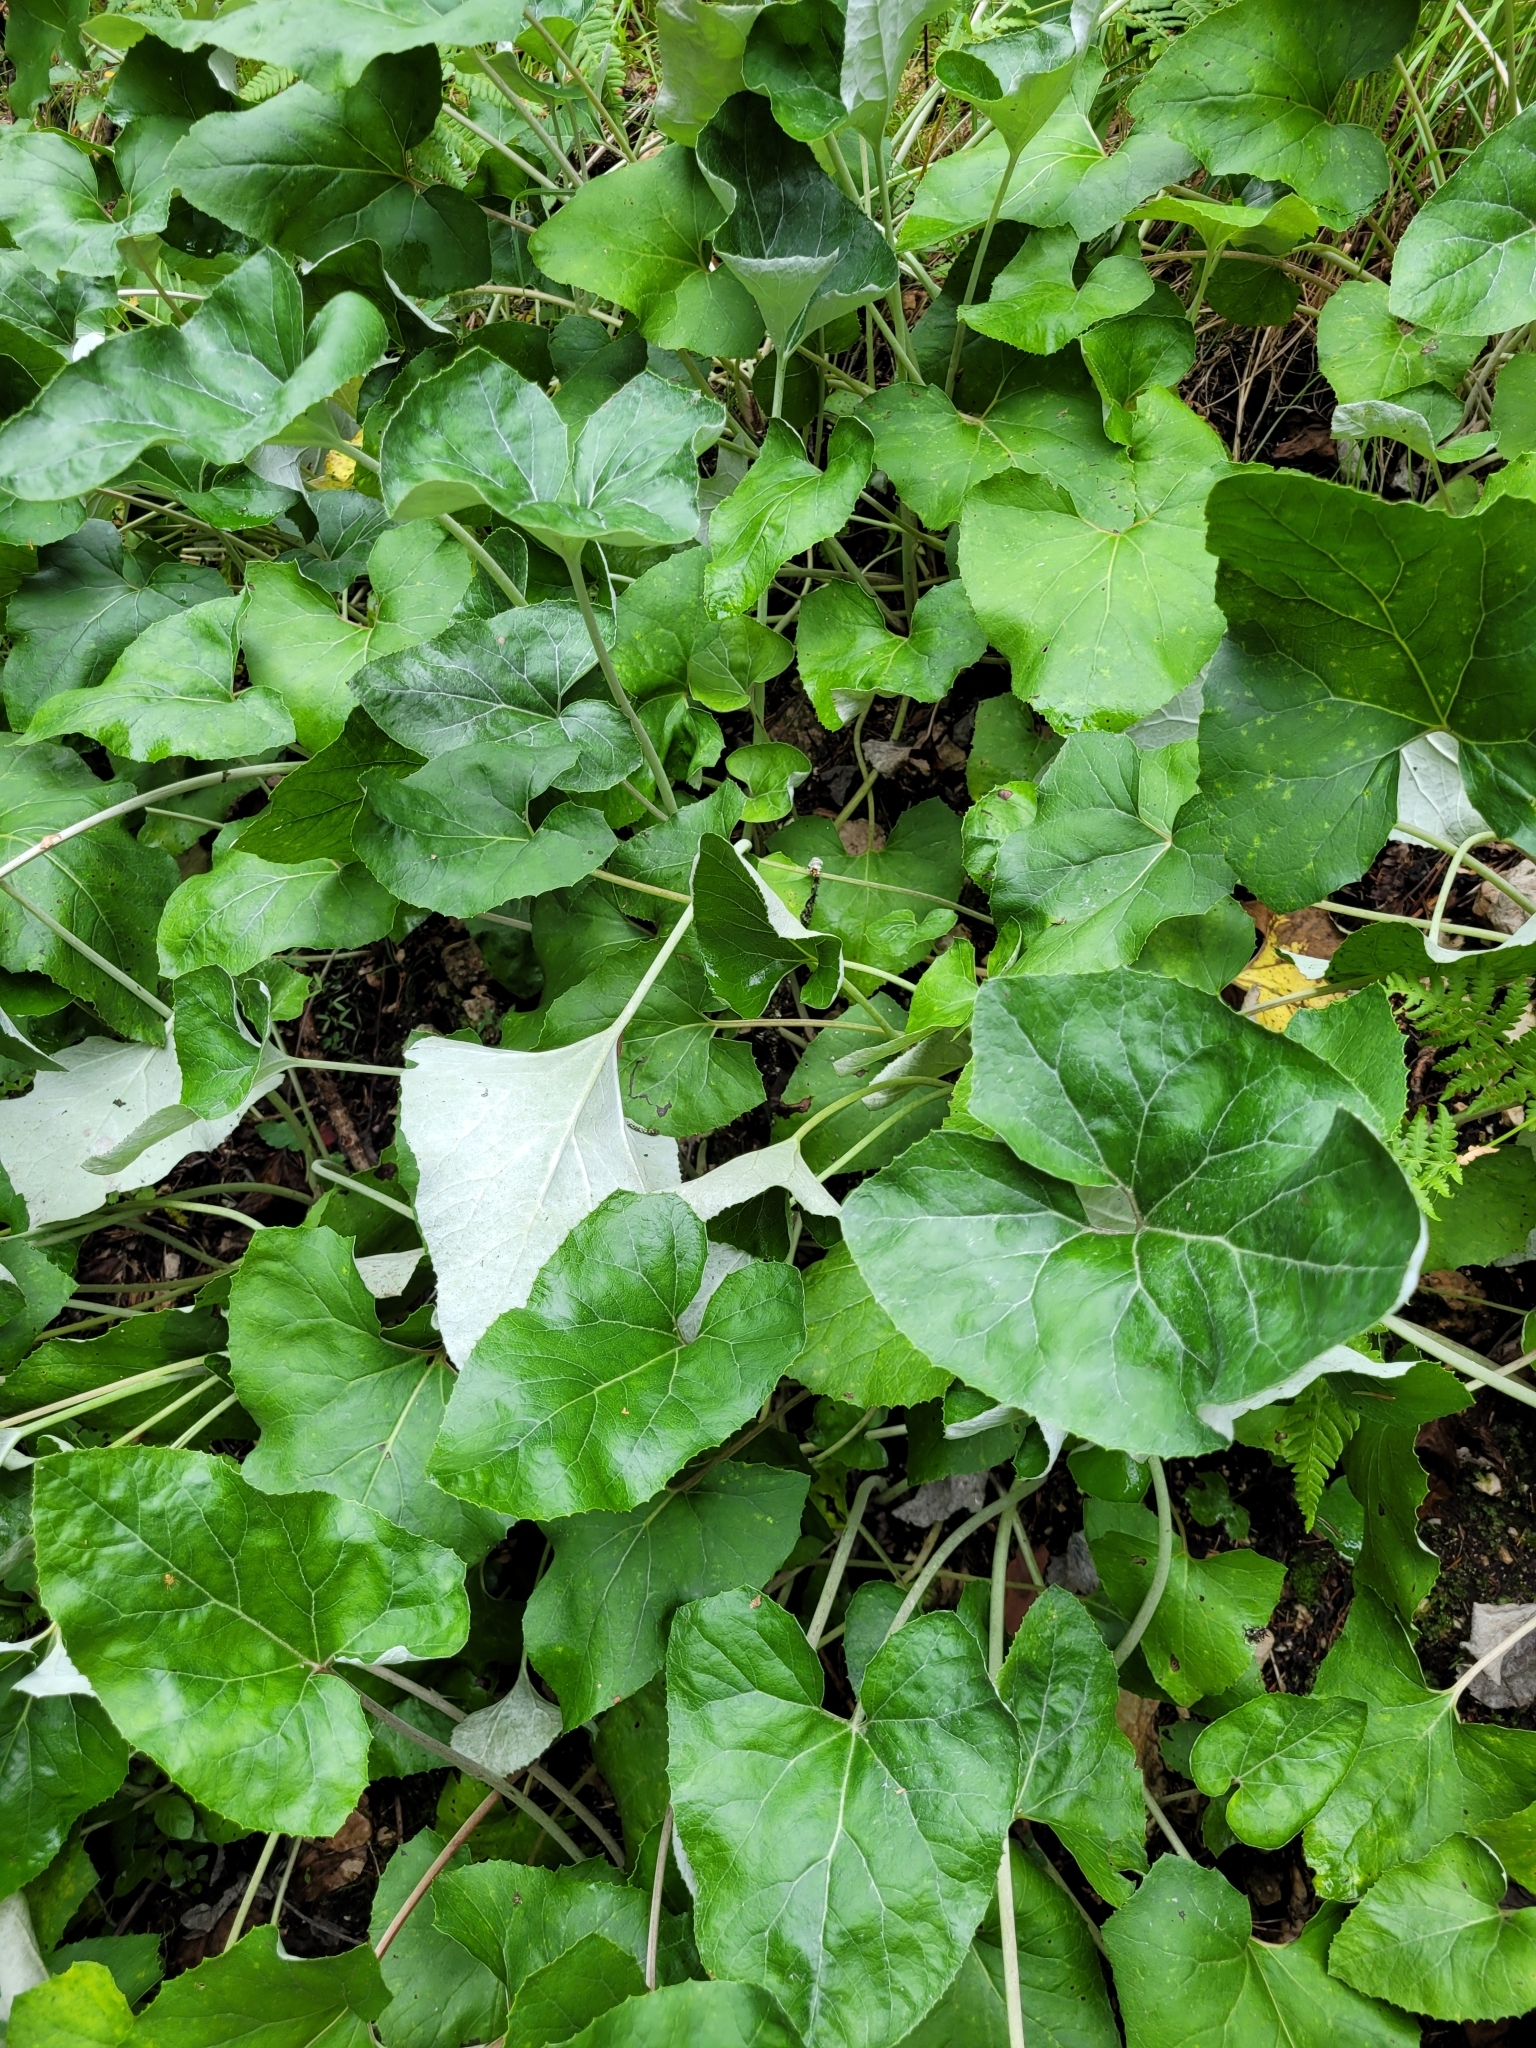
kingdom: Plantae
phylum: Tracheophyta
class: Magnoliopsida
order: Asterales
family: Asteraceae
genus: Petasites
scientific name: Petasites paradoxus
